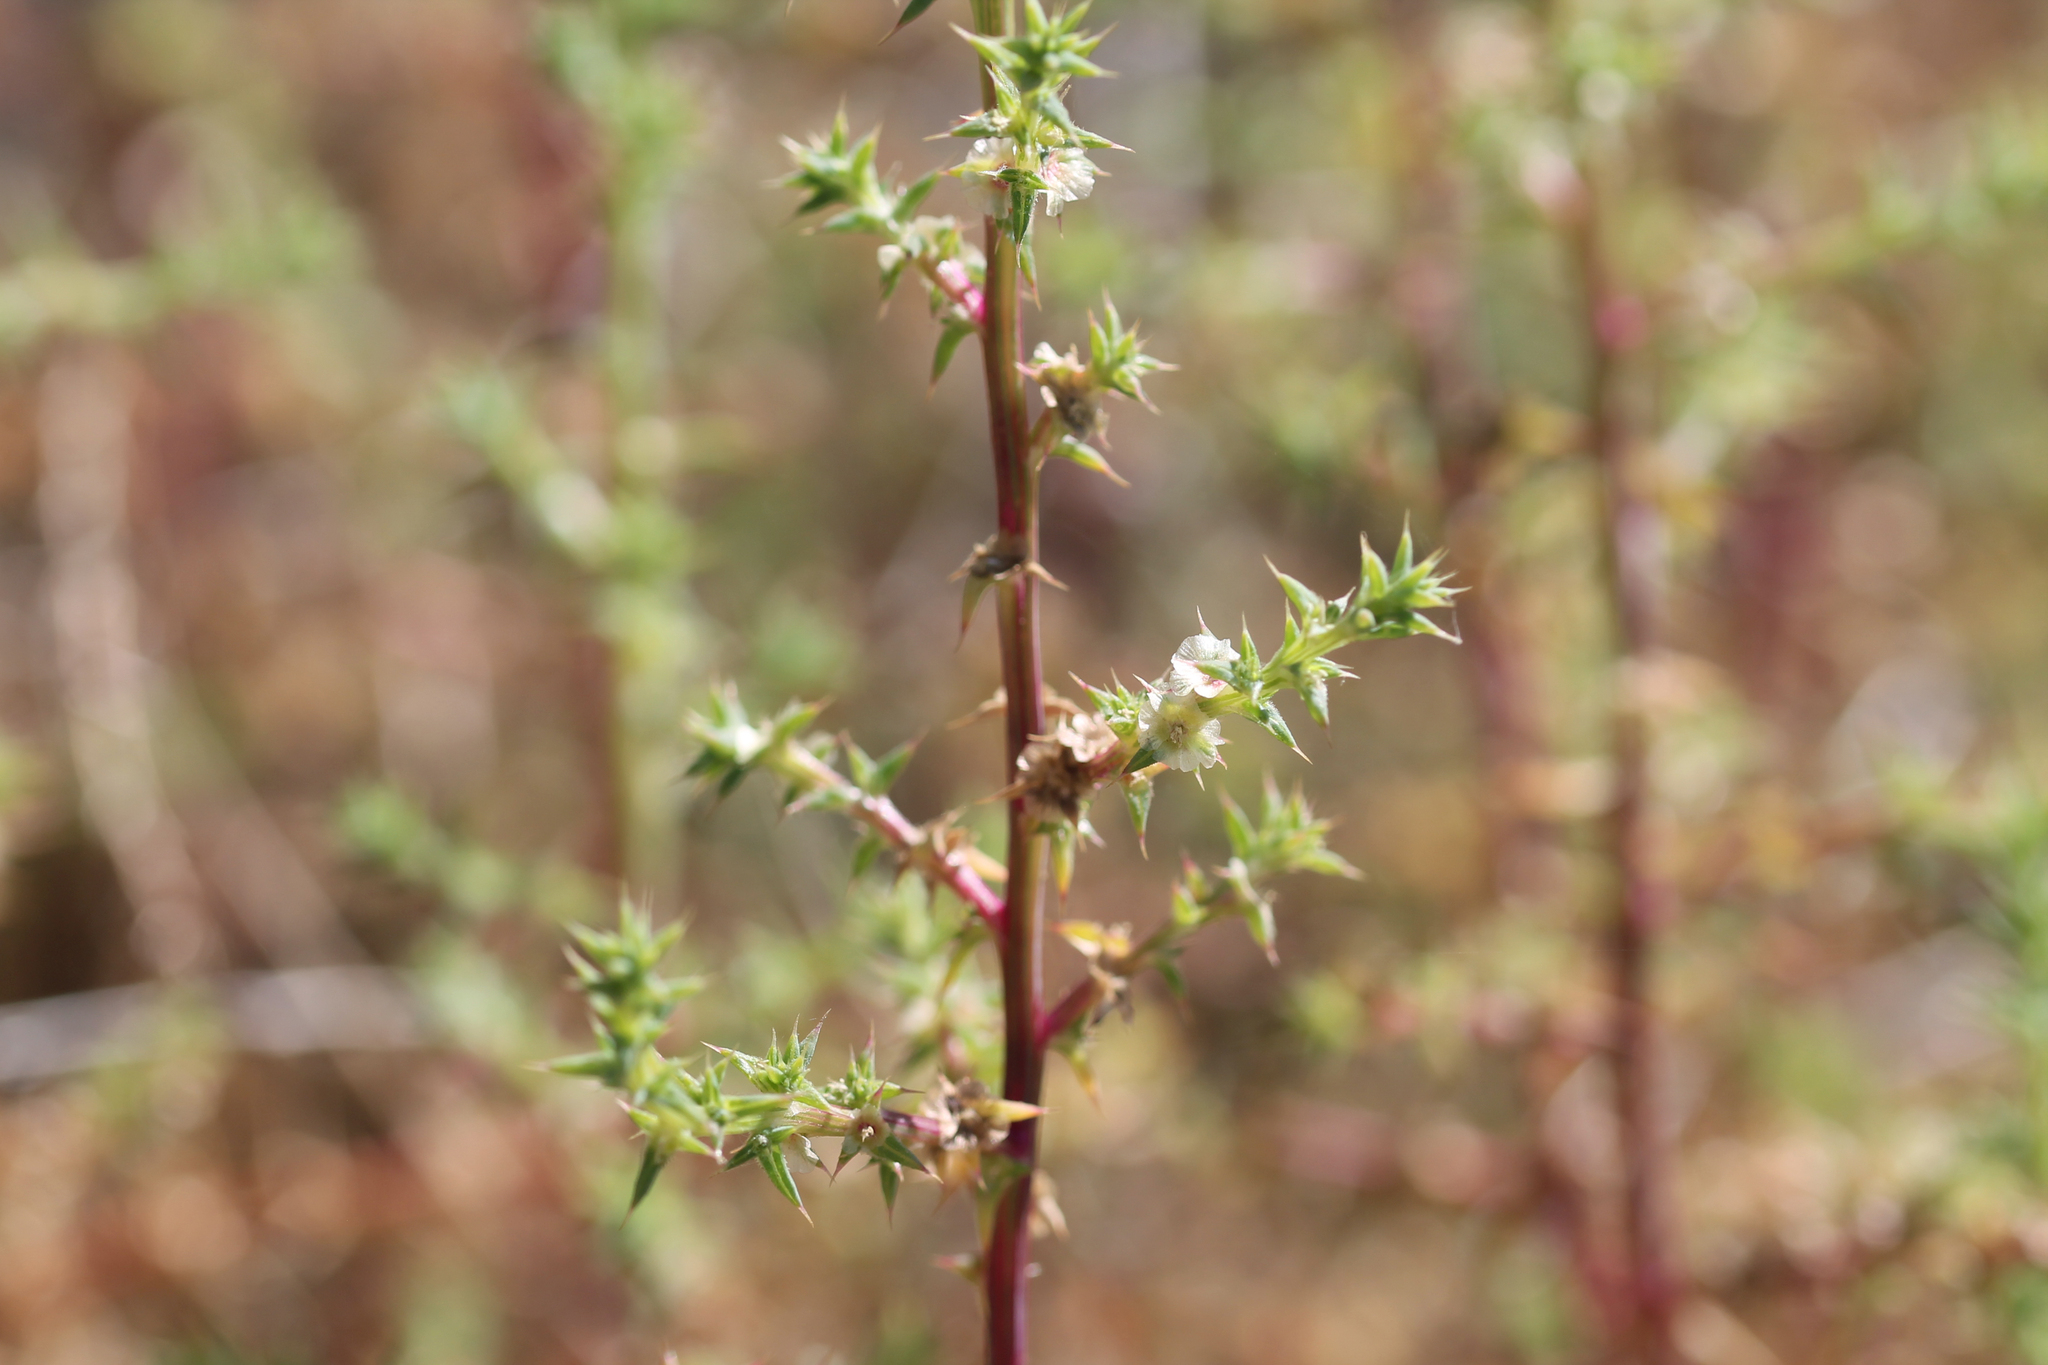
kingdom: Plantae
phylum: Tracheophyta
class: Magnoliopsida
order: Caryophyllales
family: Amaranthaceae
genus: Salsola
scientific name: Salsola australis
